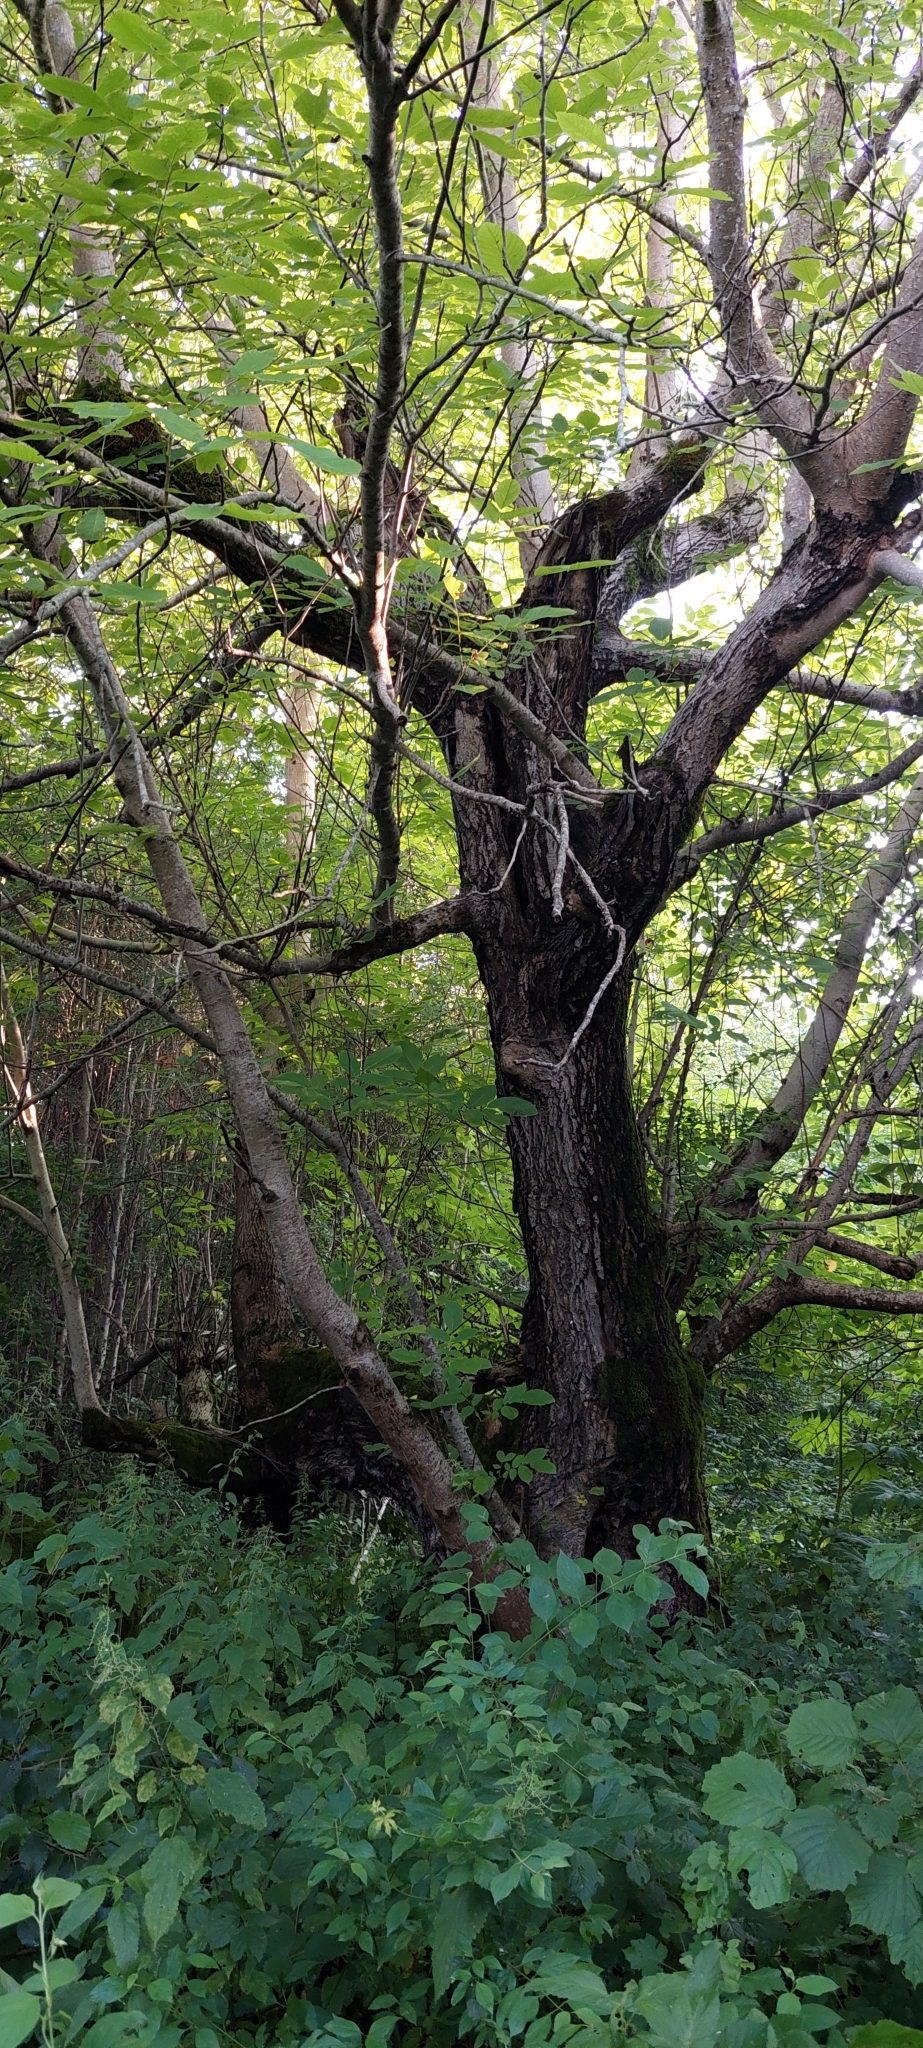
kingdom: Plantae
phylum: Tracheophyta
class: Magnoliopsida
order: Fagales
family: Juglandaceae
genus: Juglans
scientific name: Juglans regia
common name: Walnut
